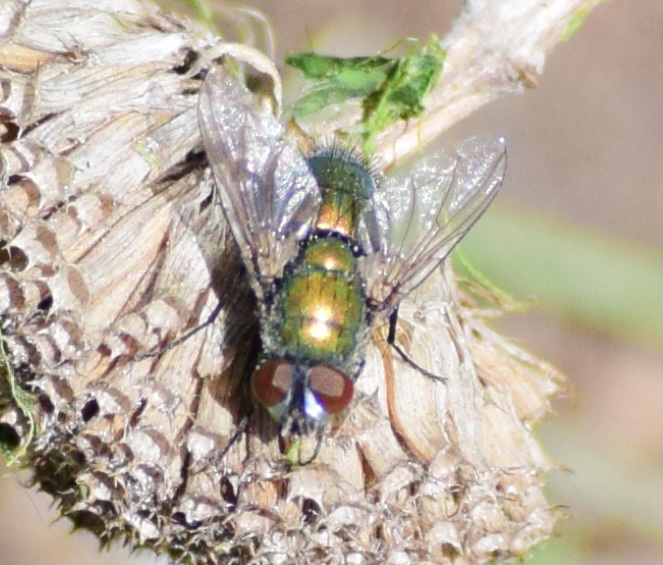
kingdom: Animalia
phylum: Arthropoda
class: Insecta
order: Diptera
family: Calliphoridae
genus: Lucilia
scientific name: Lucilia sericata
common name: Blow fly
